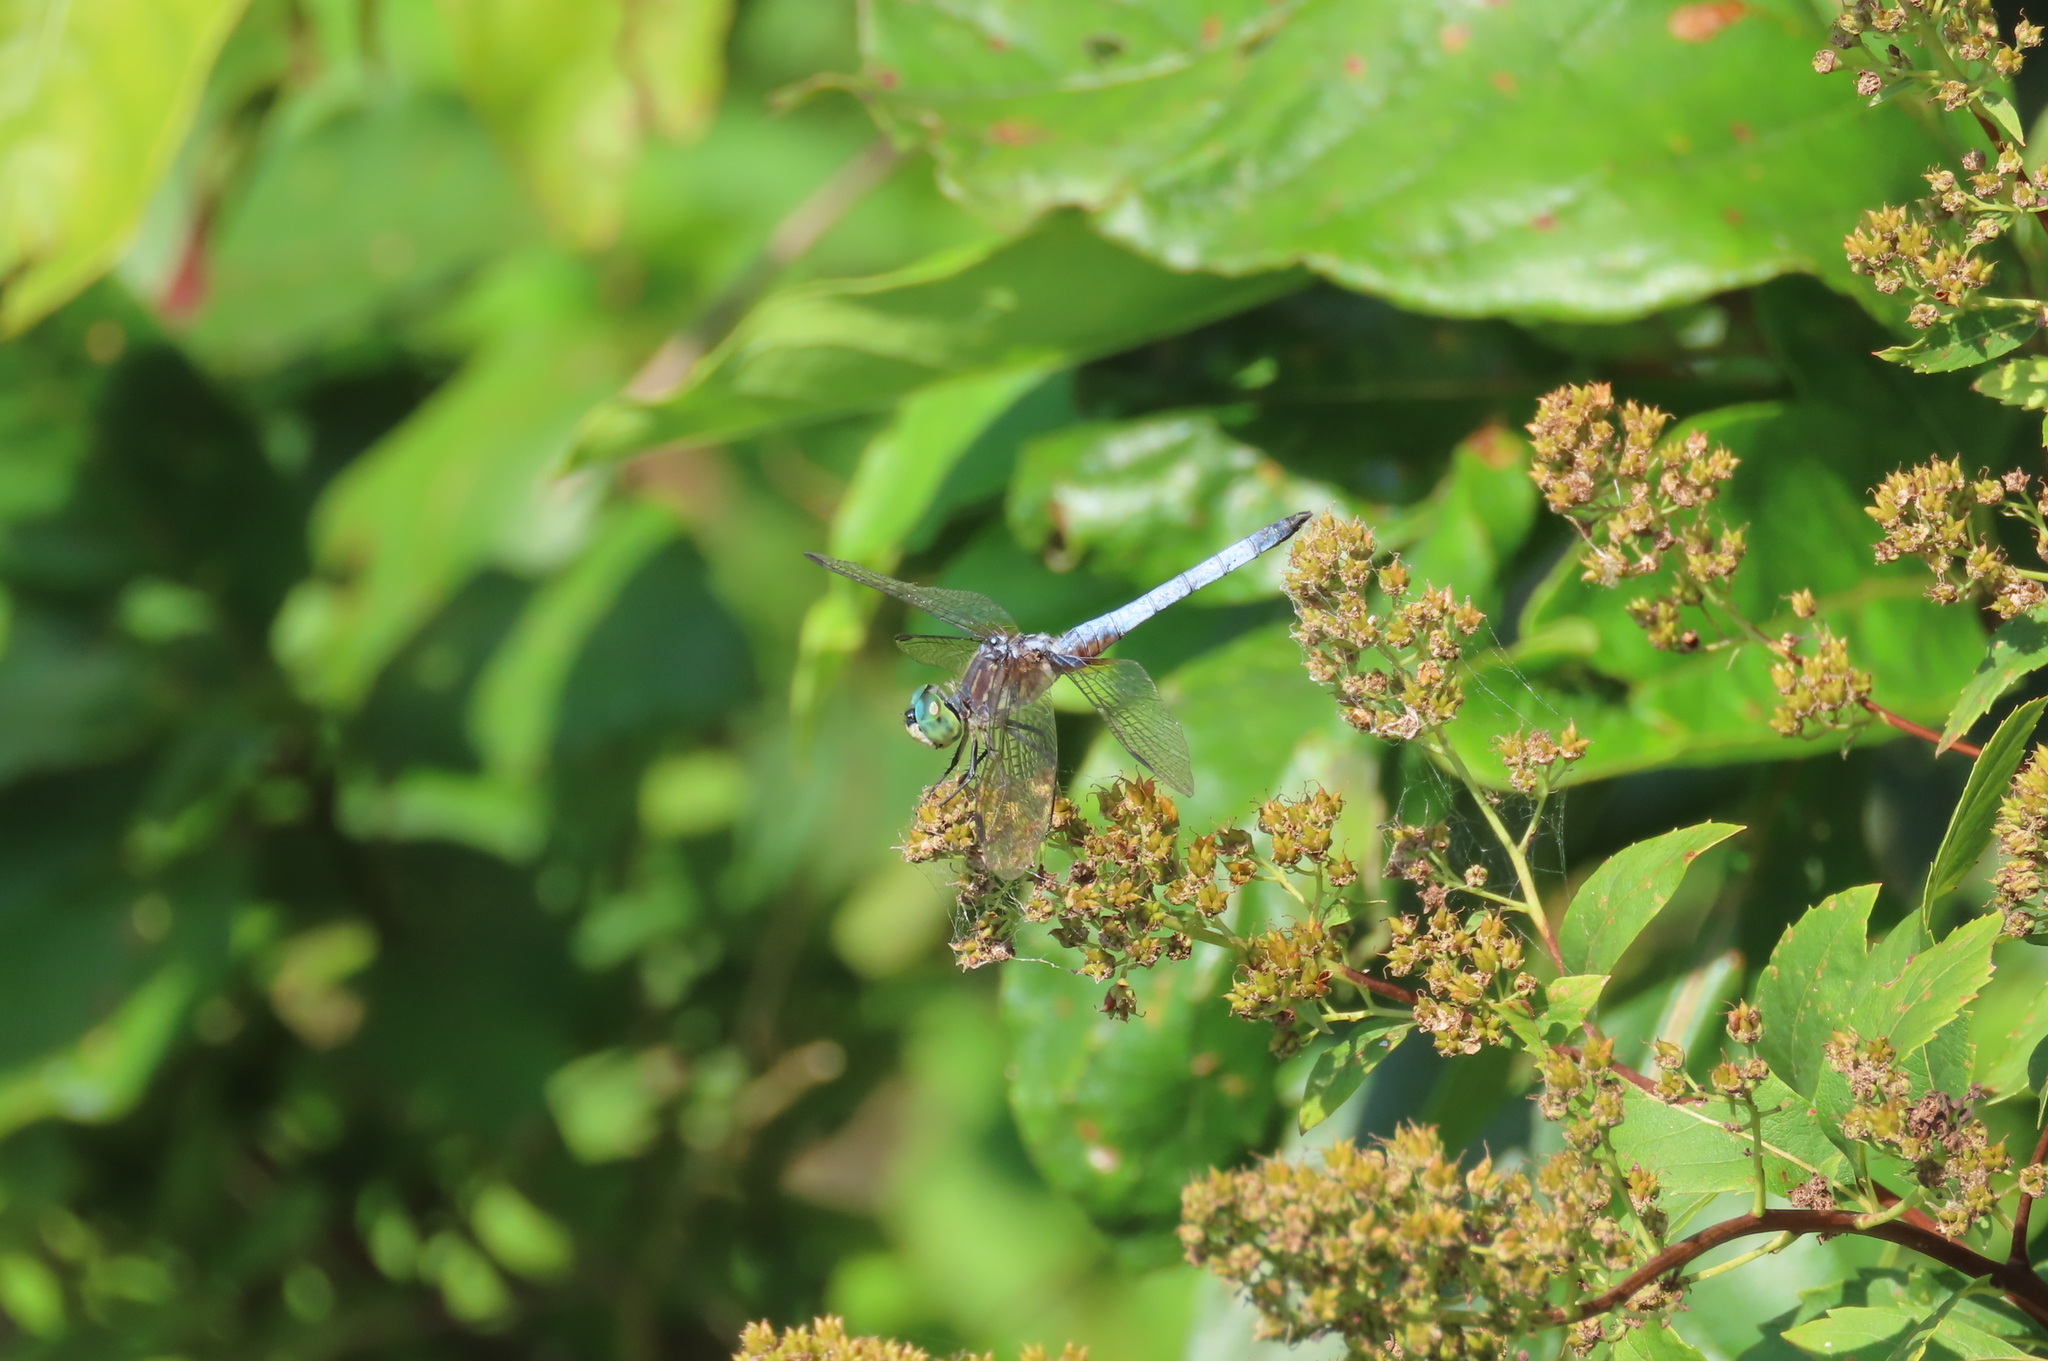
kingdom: Animalia
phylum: Arthropoda
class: Insecta
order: Odonata
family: Libellulidae
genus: Pachydiplax
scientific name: Pachydiplax longipennis
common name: Blue dasher
